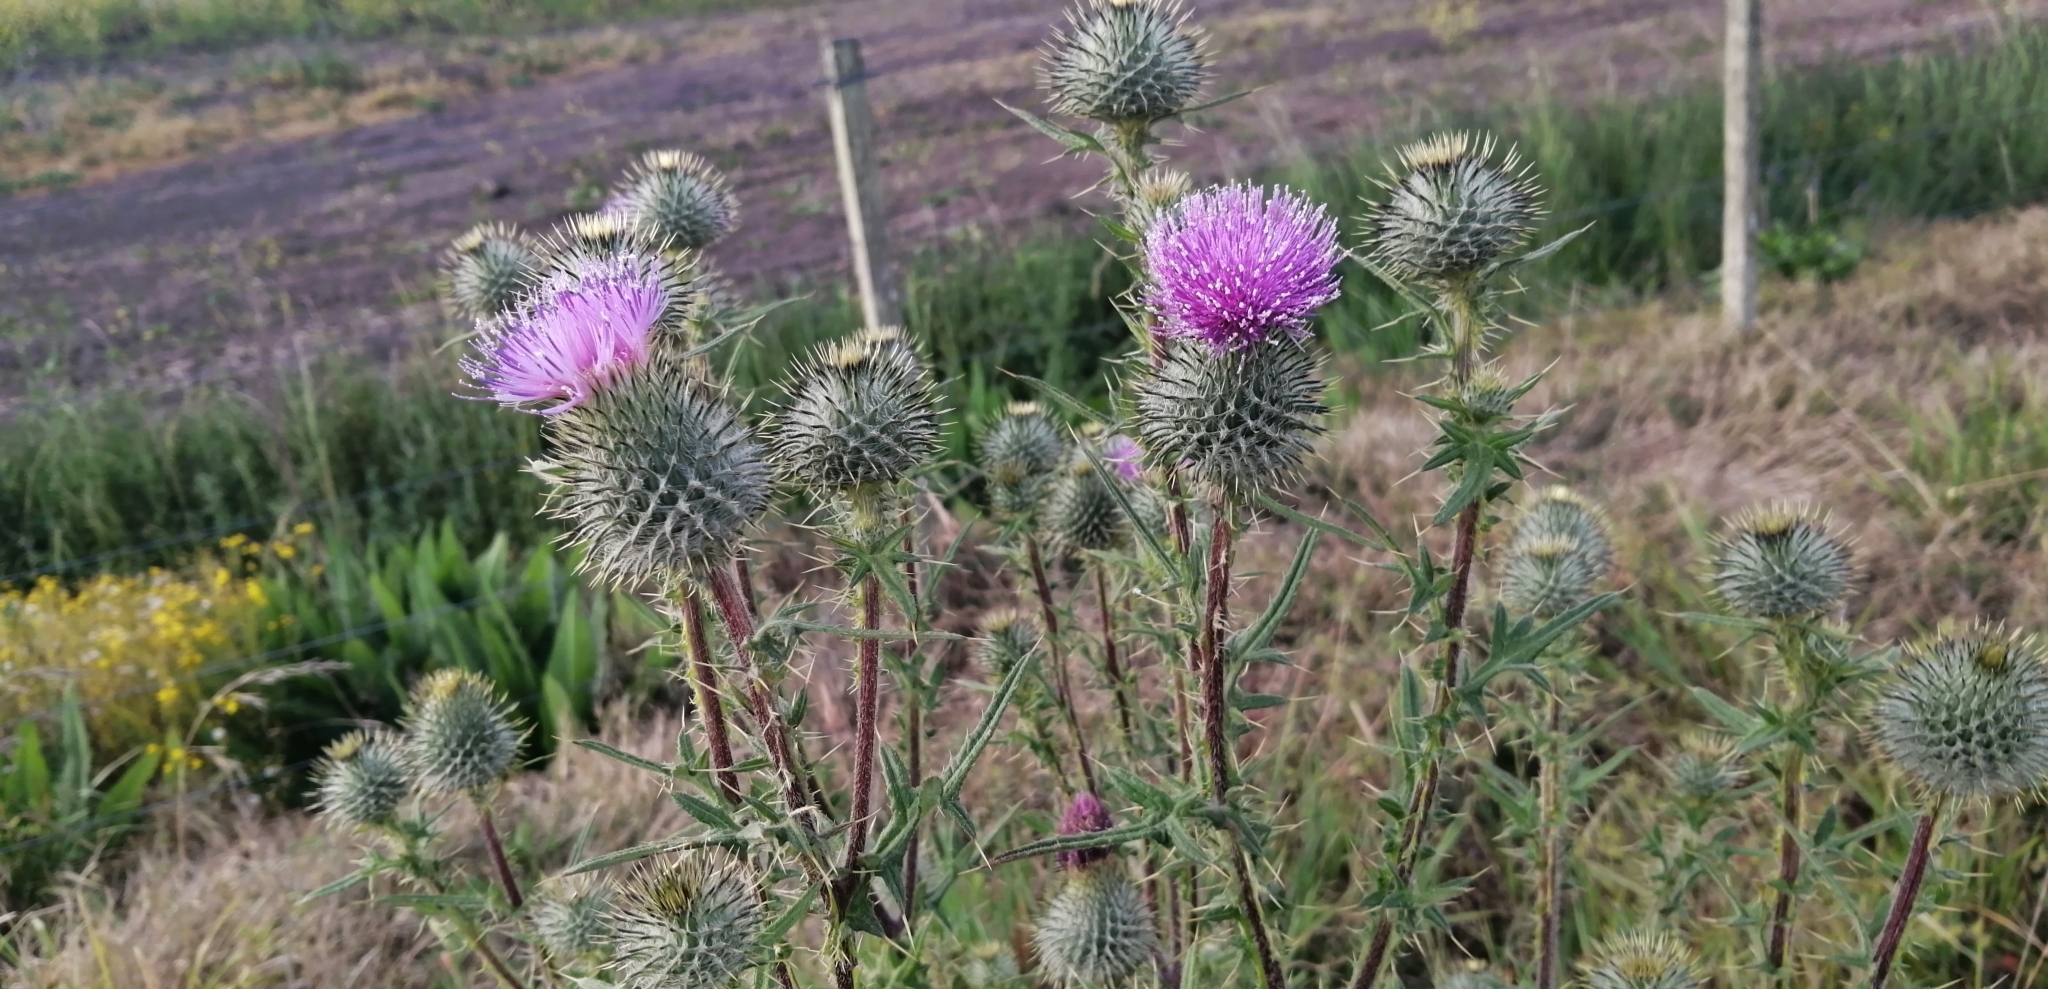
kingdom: Plantae
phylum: Tracheophyta
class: Magnoliopsida
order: Asterales
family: Asteraceae
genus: Cirsium
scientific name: Cirsium vulgare
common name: Bull thistle
